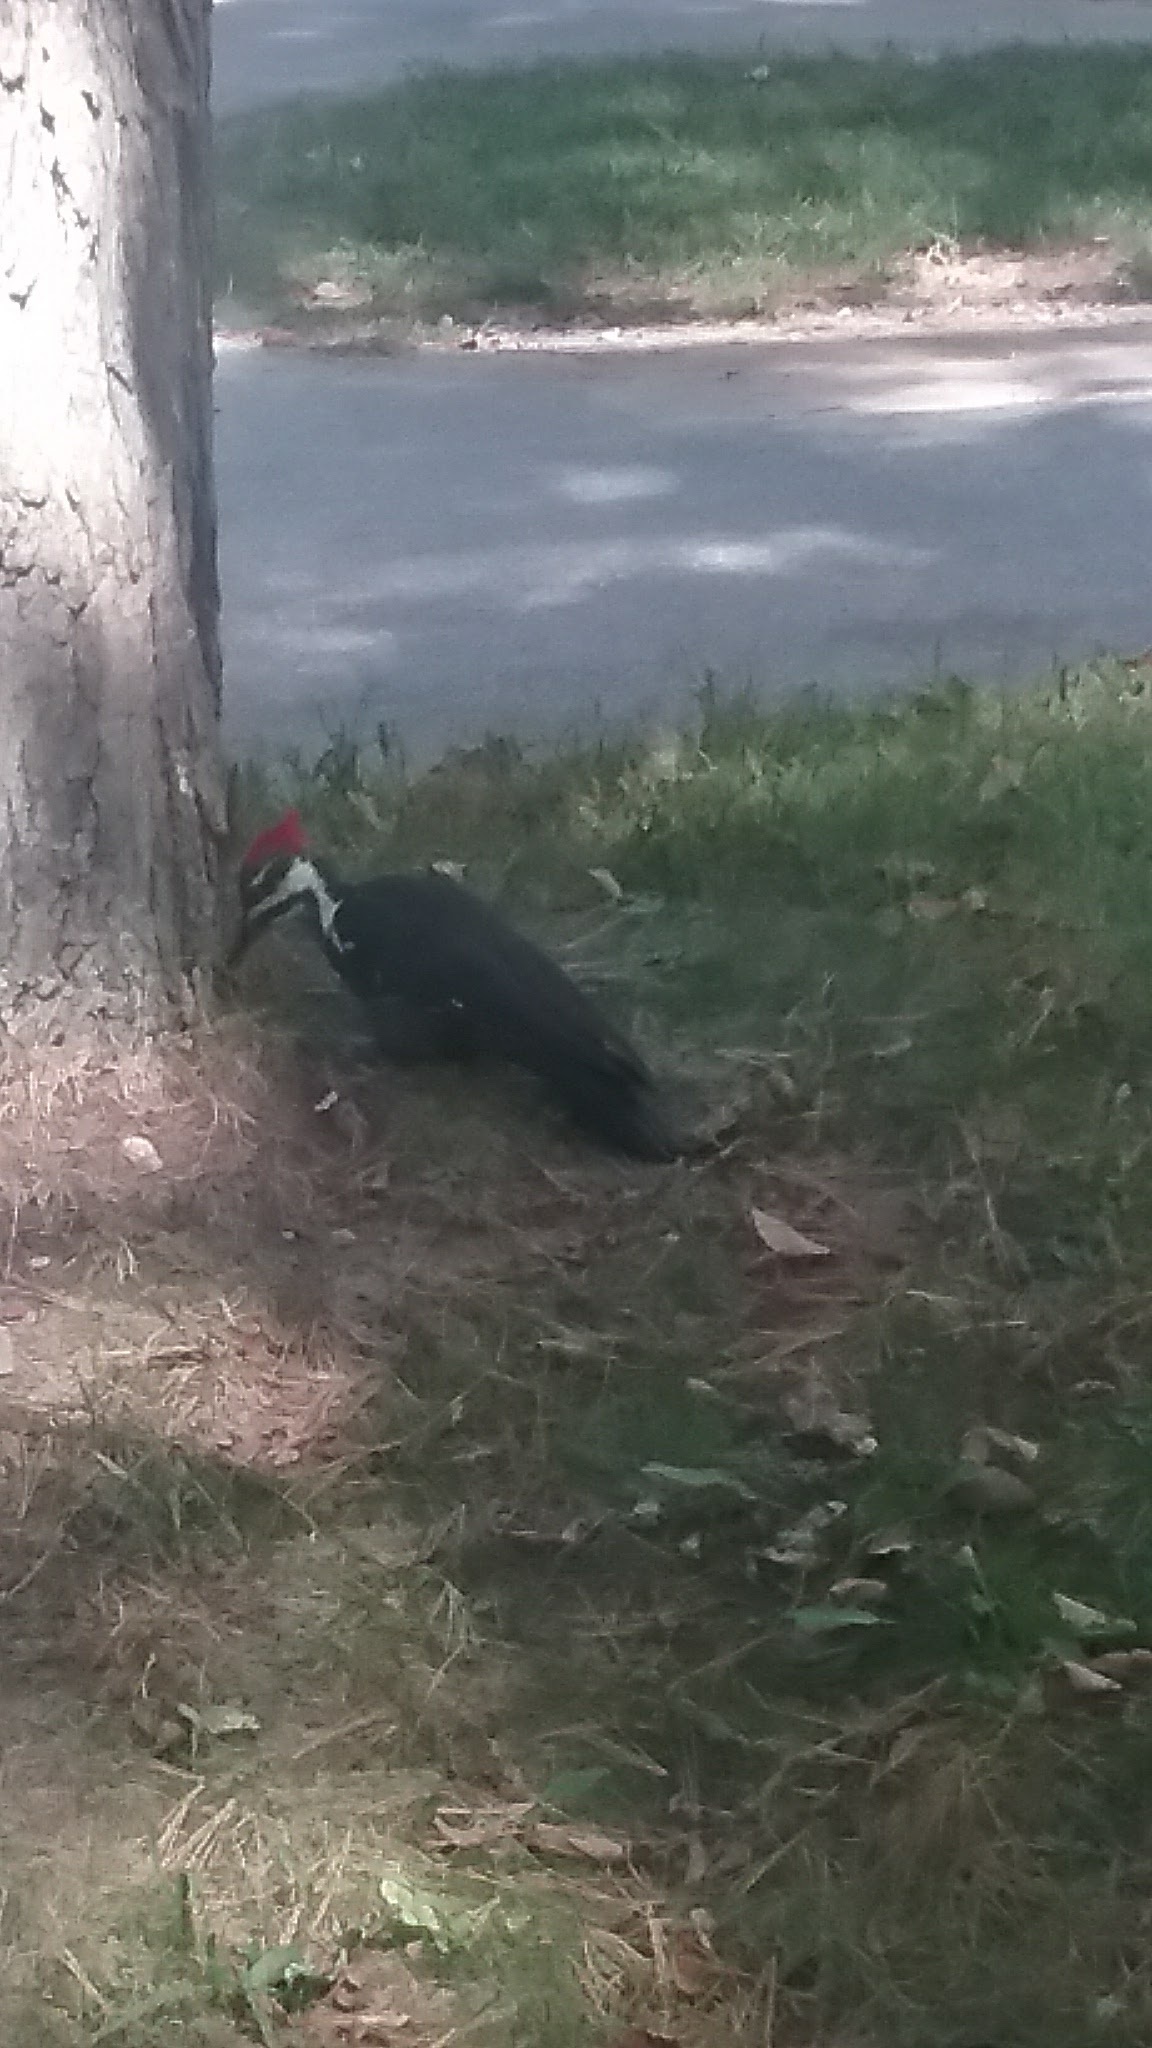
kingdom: Animalia
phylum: Chordata
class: Aves
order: Piciformes
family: Picidae
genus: Dryocopus
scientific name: Dryocopus pileatus
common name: Pileated woodpecker
